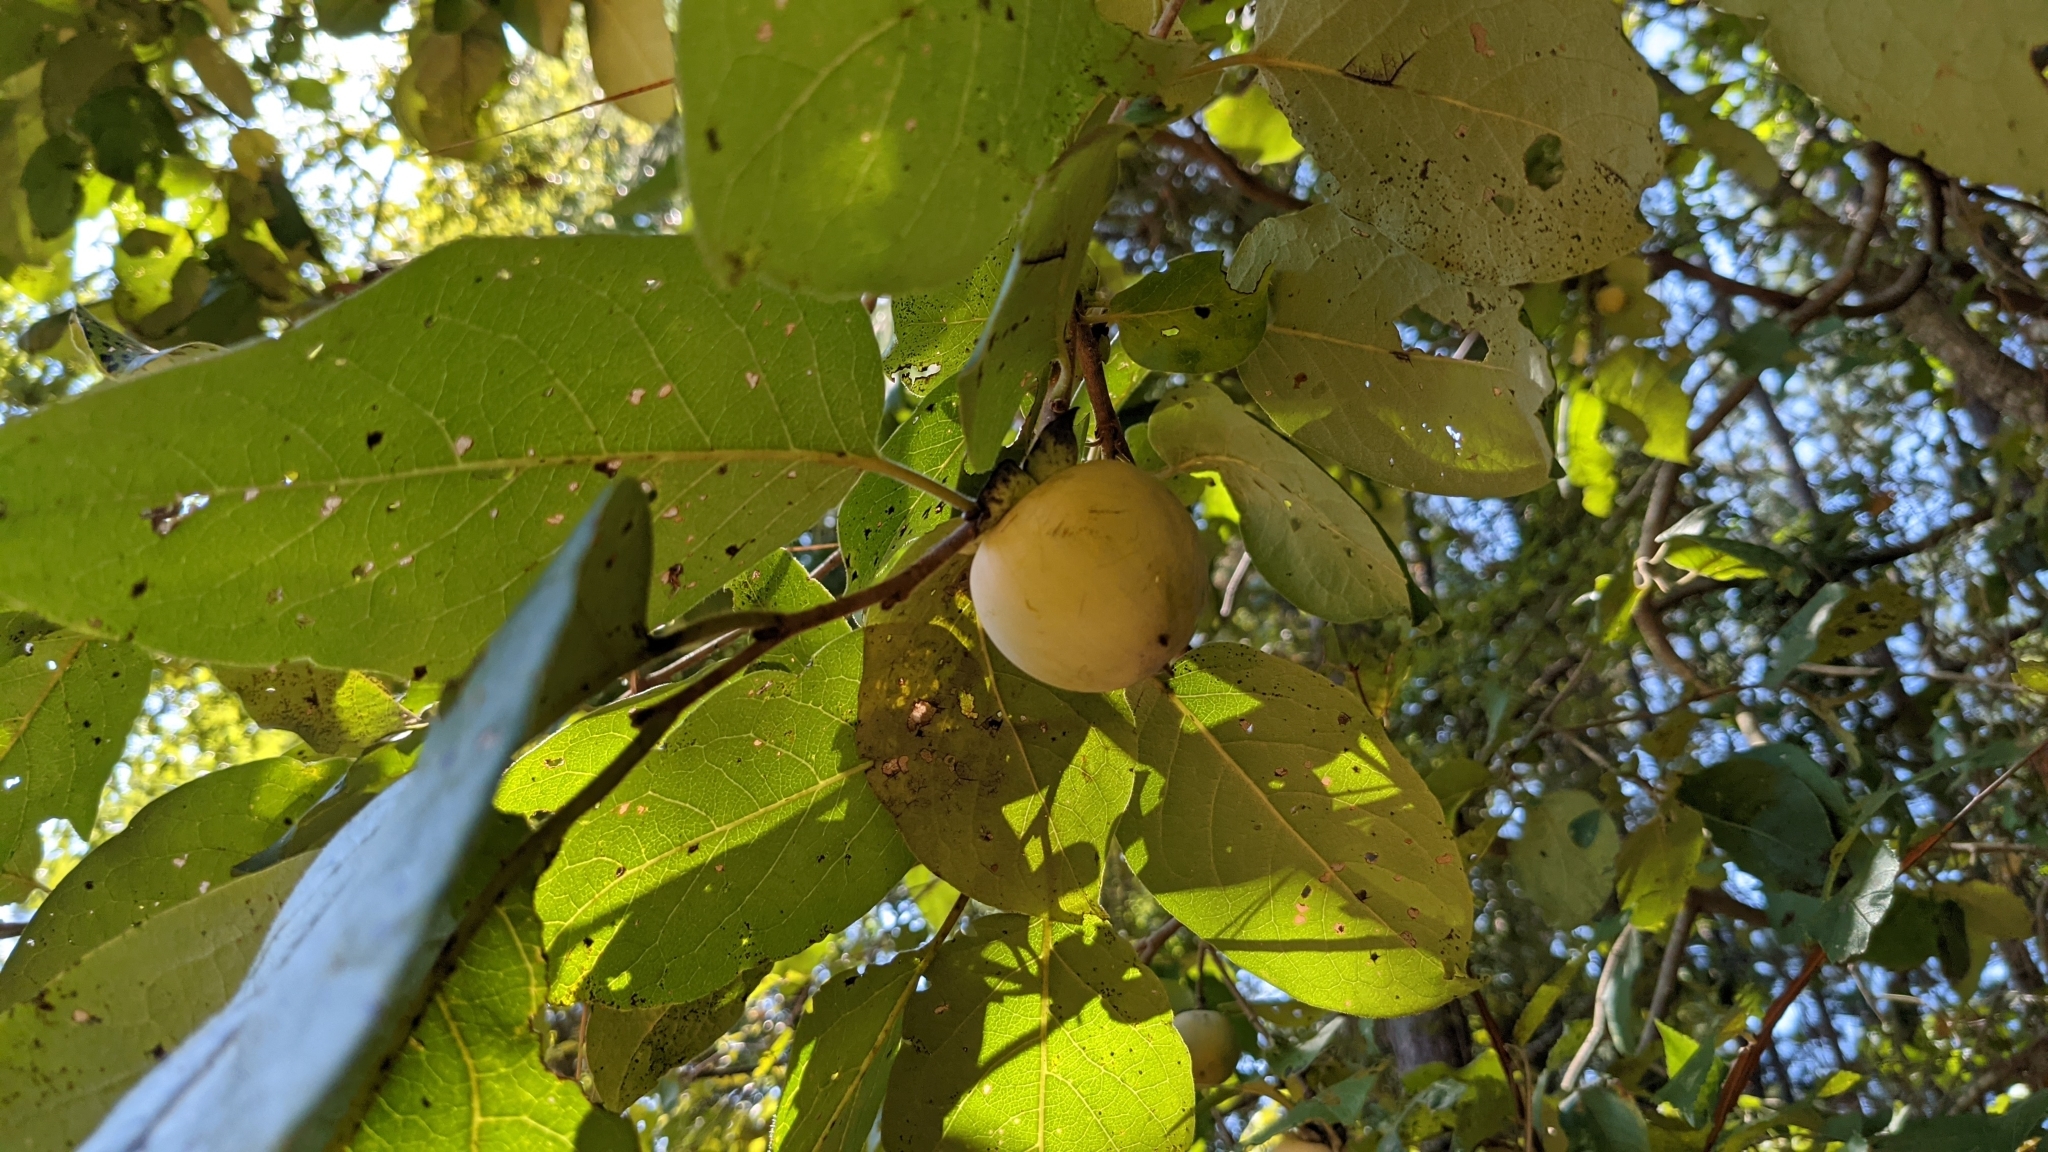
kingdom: Plantae
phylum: Tracheophyta
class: Magnoliopsida
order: Ericales
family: Ebenaceae
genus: Diospyros
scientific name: Diospyros virginiana
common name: Persimmon
